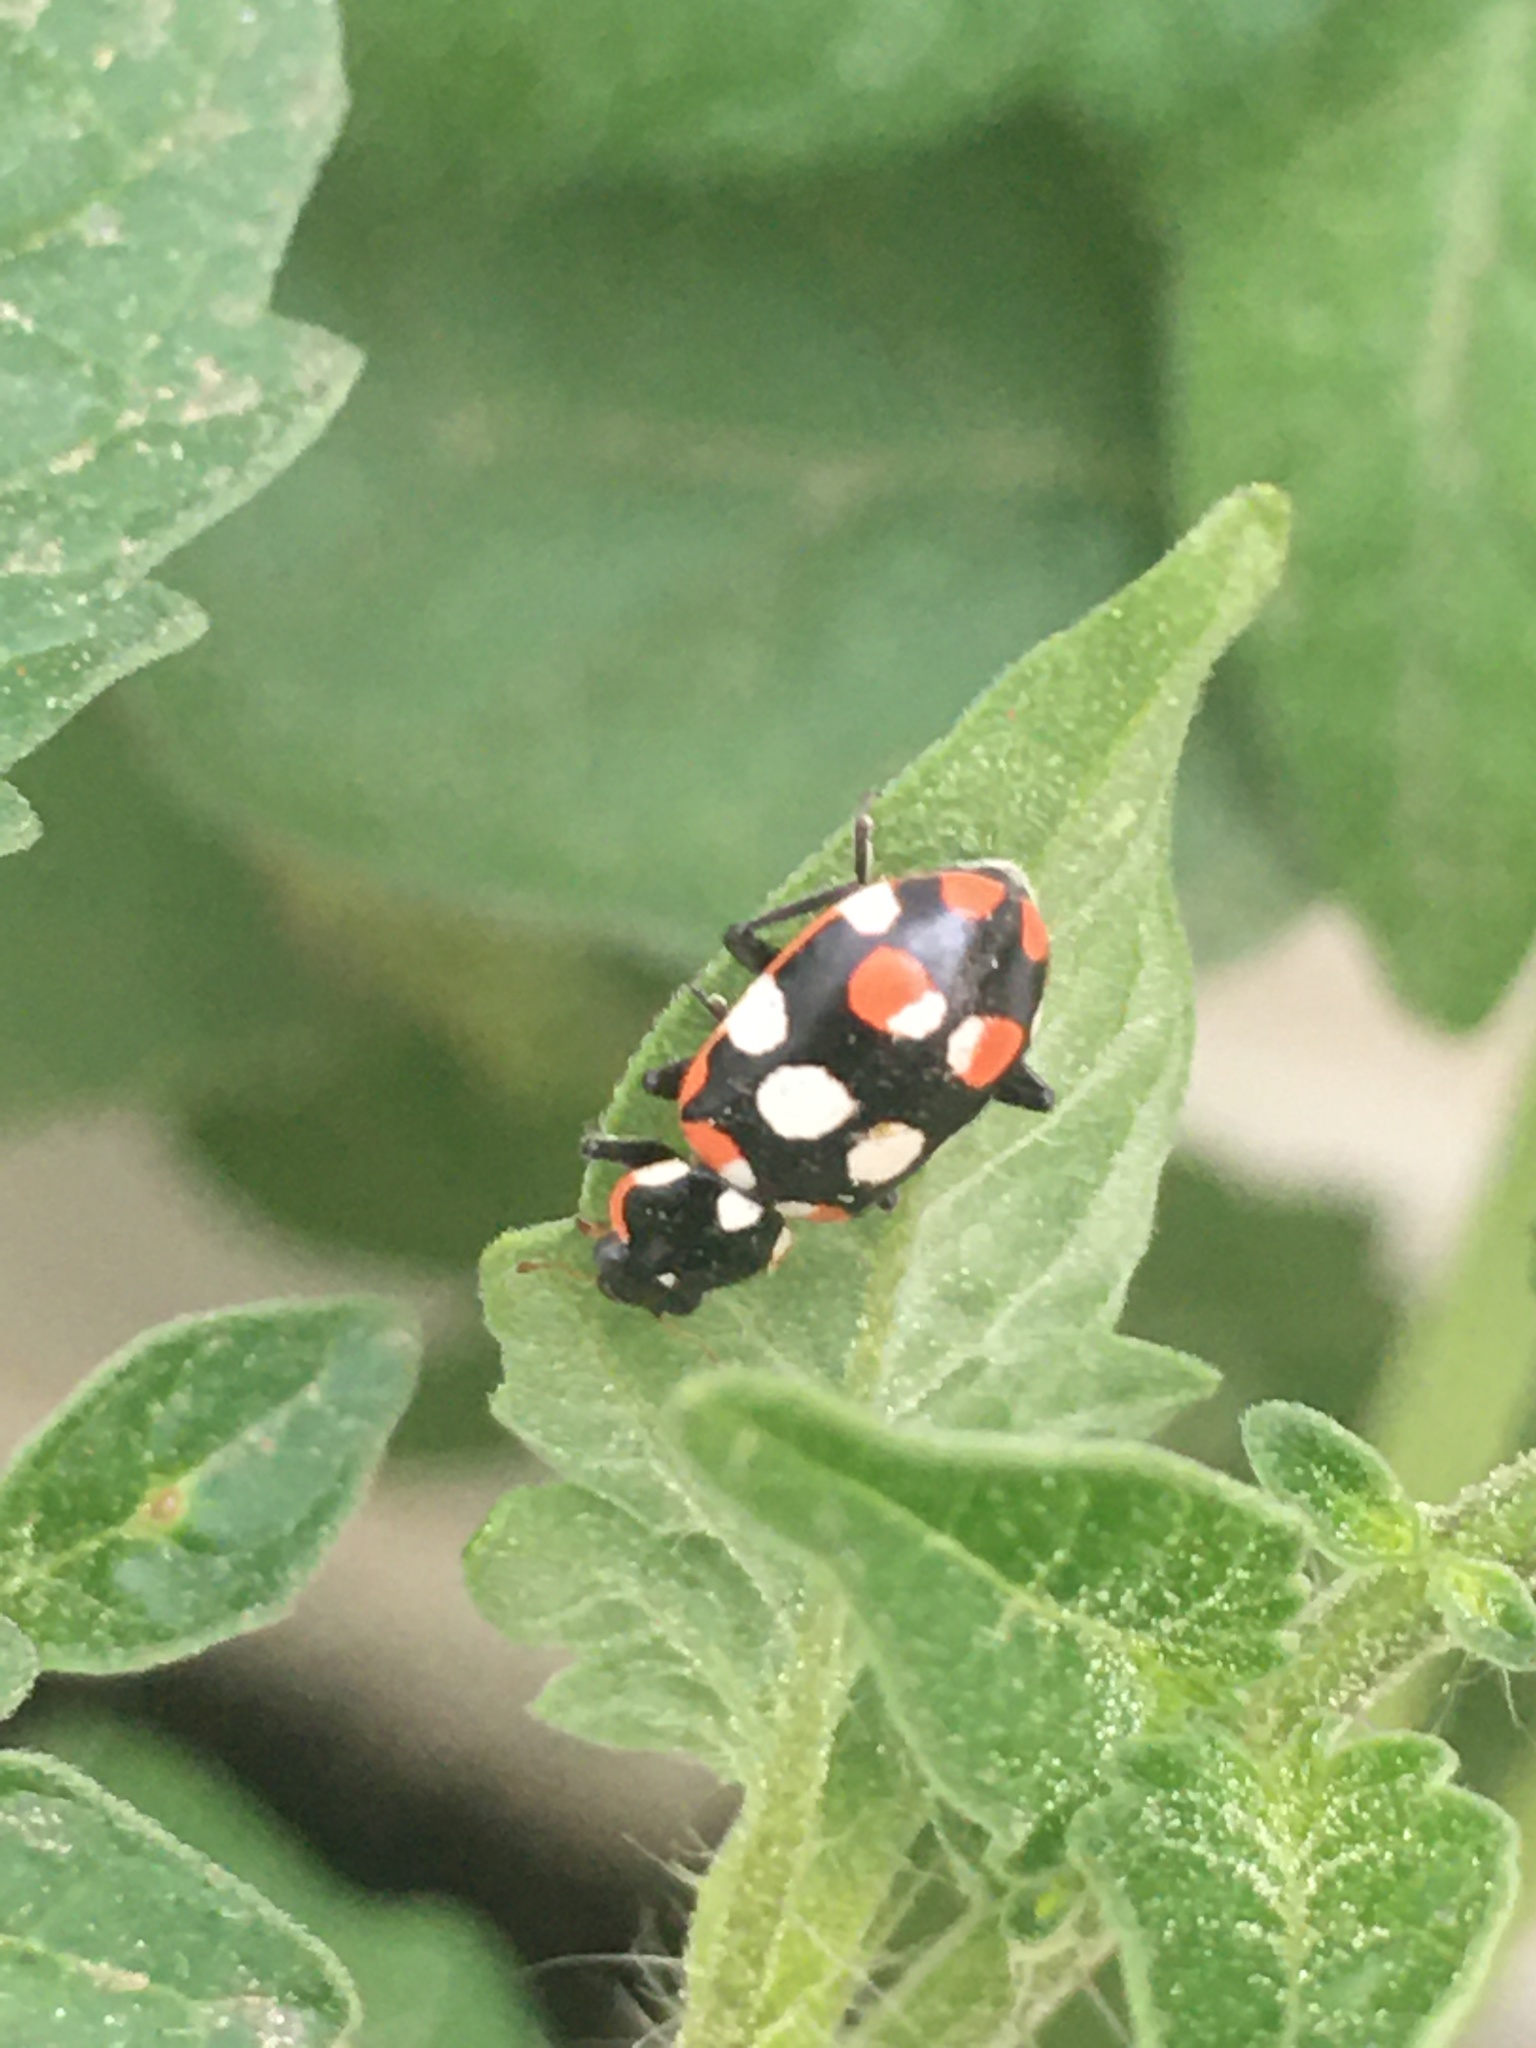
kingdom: Animalia
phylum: Arthropoda
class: Insecta
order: Coleoptera
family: Coccinellidae
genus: Eriopis
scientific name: Eriopis connexa
